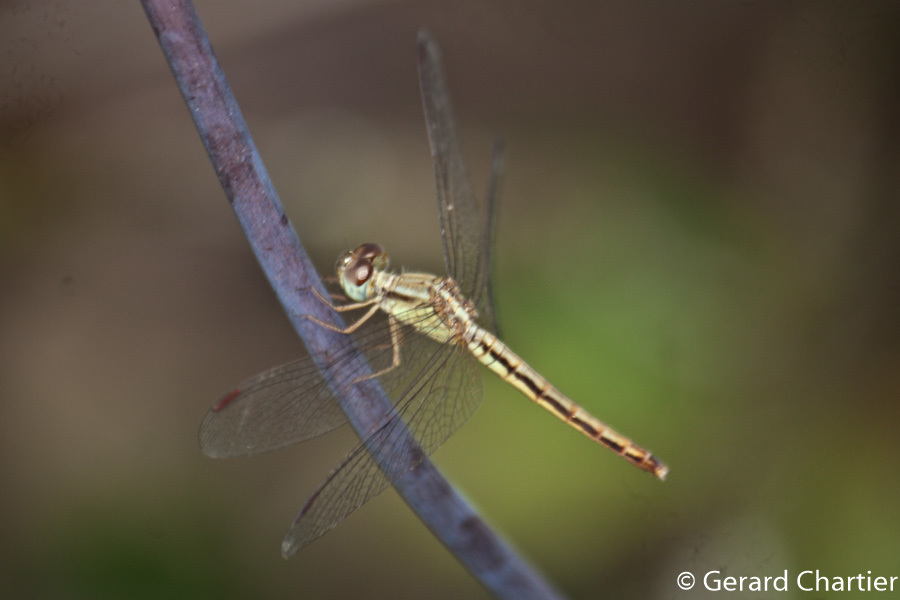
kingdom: Animalia
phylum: Arthropoda
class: Insecta
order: Odonata
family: Libellulidae
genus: Neurothemis
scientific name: Neurothemis intermedia
